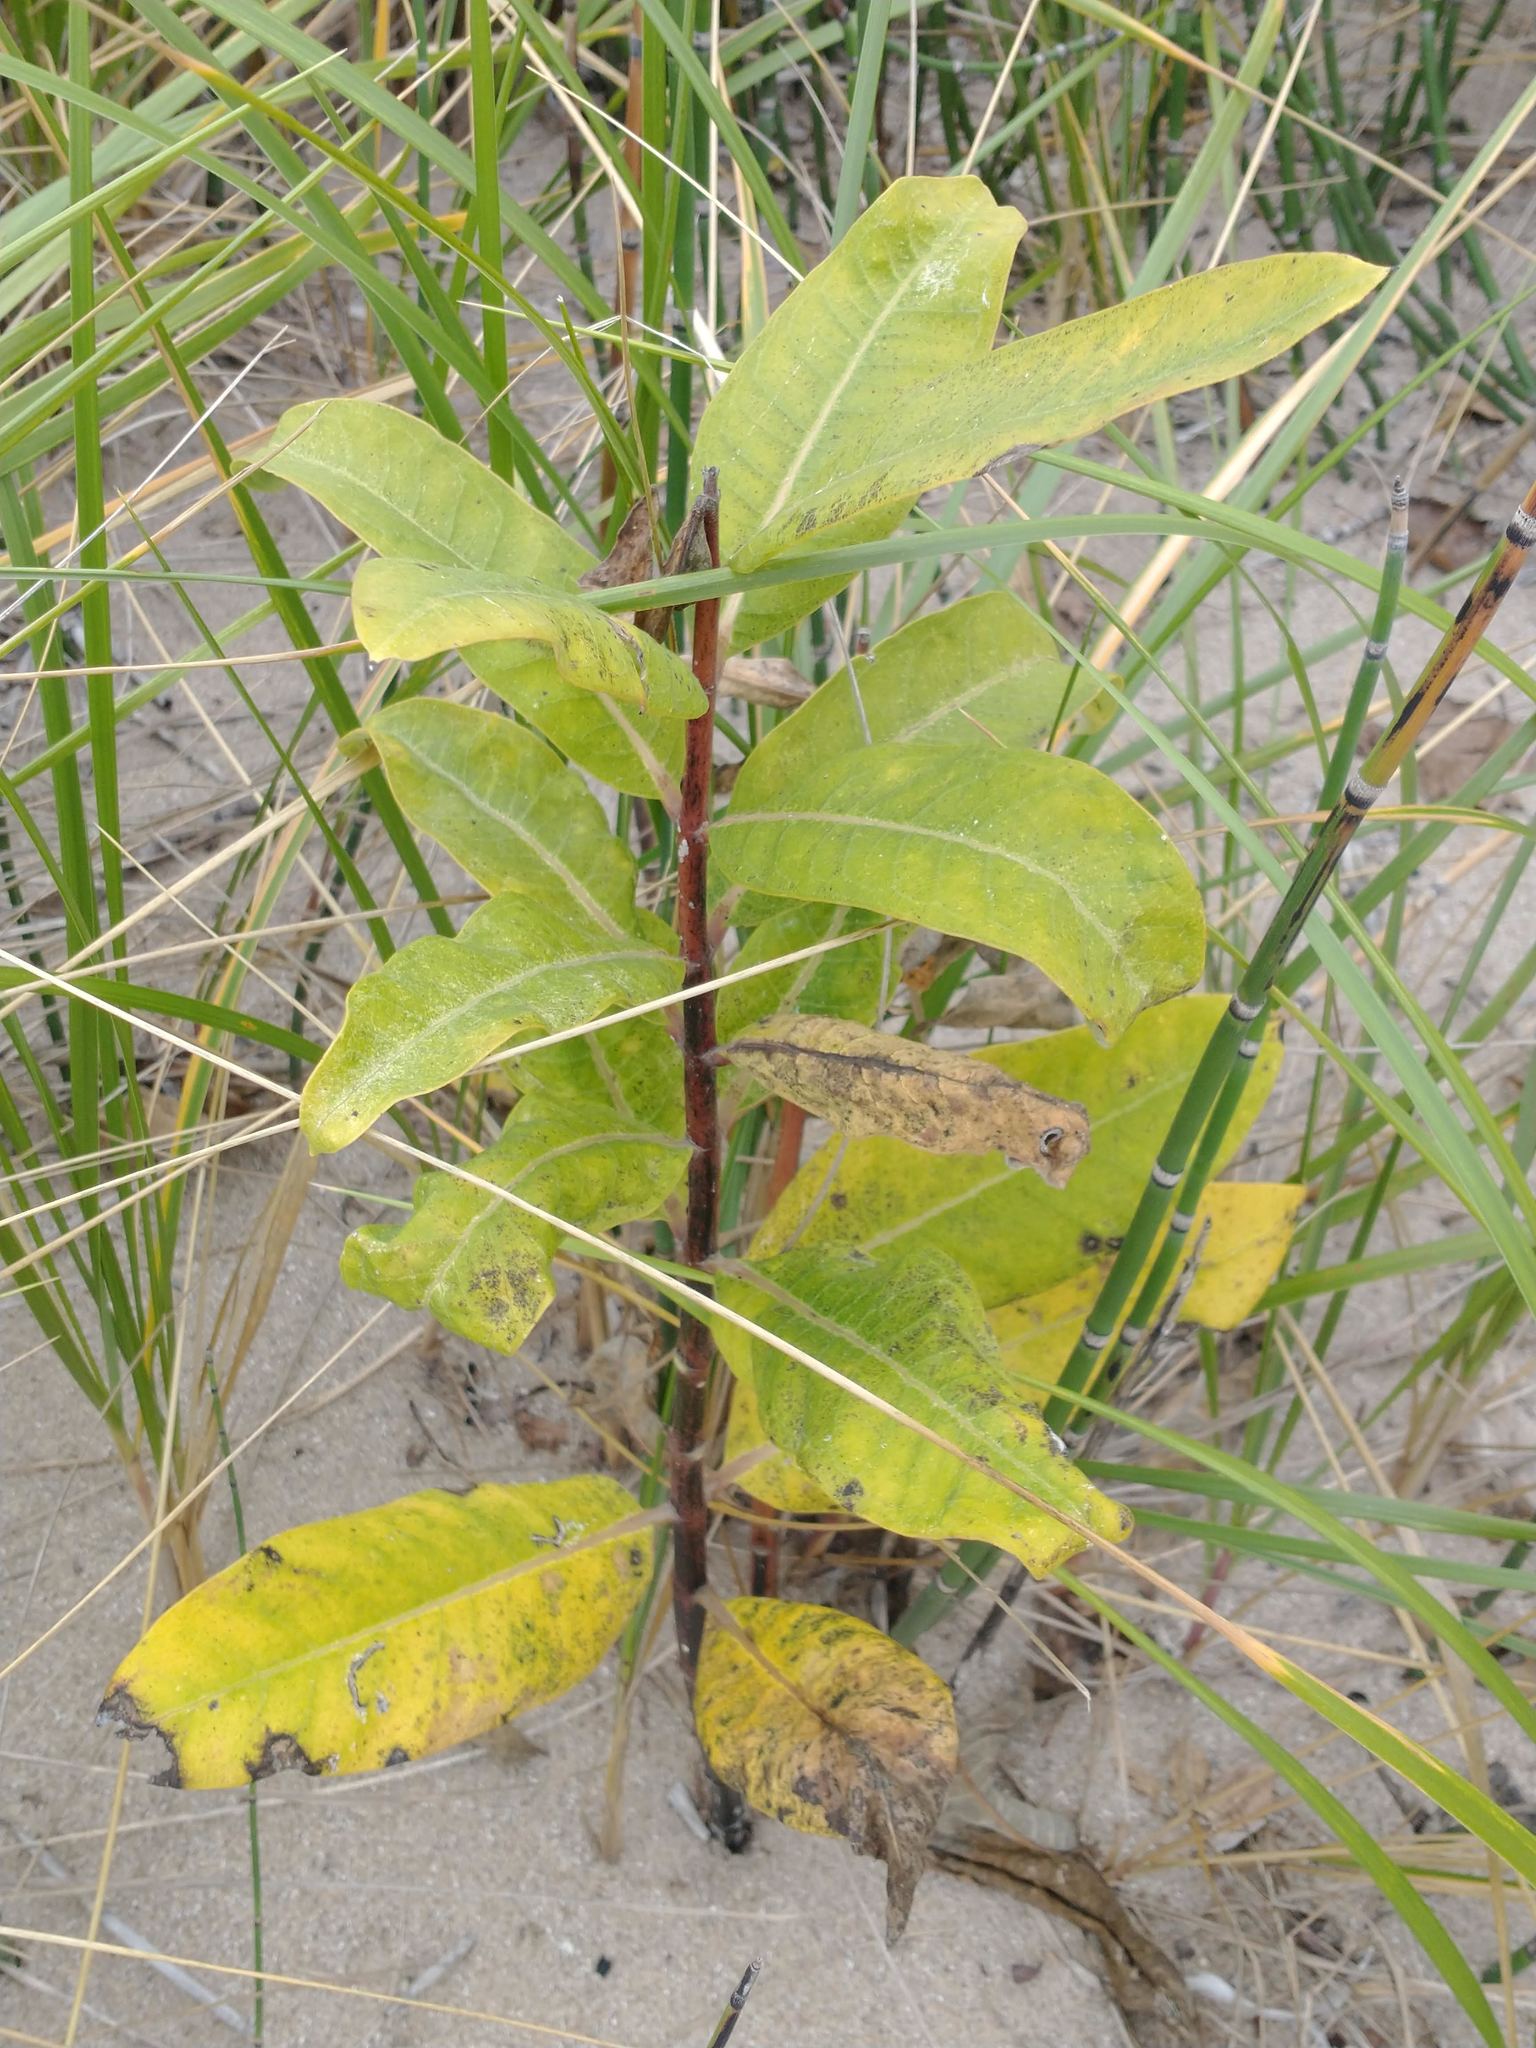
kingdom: Plantae
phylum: Tracheophyta
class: Magnoliopsida
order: Gentianales
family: Apocynaceae
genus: Asclepias
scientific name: Asclepias syriaca
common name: Common milkweed
